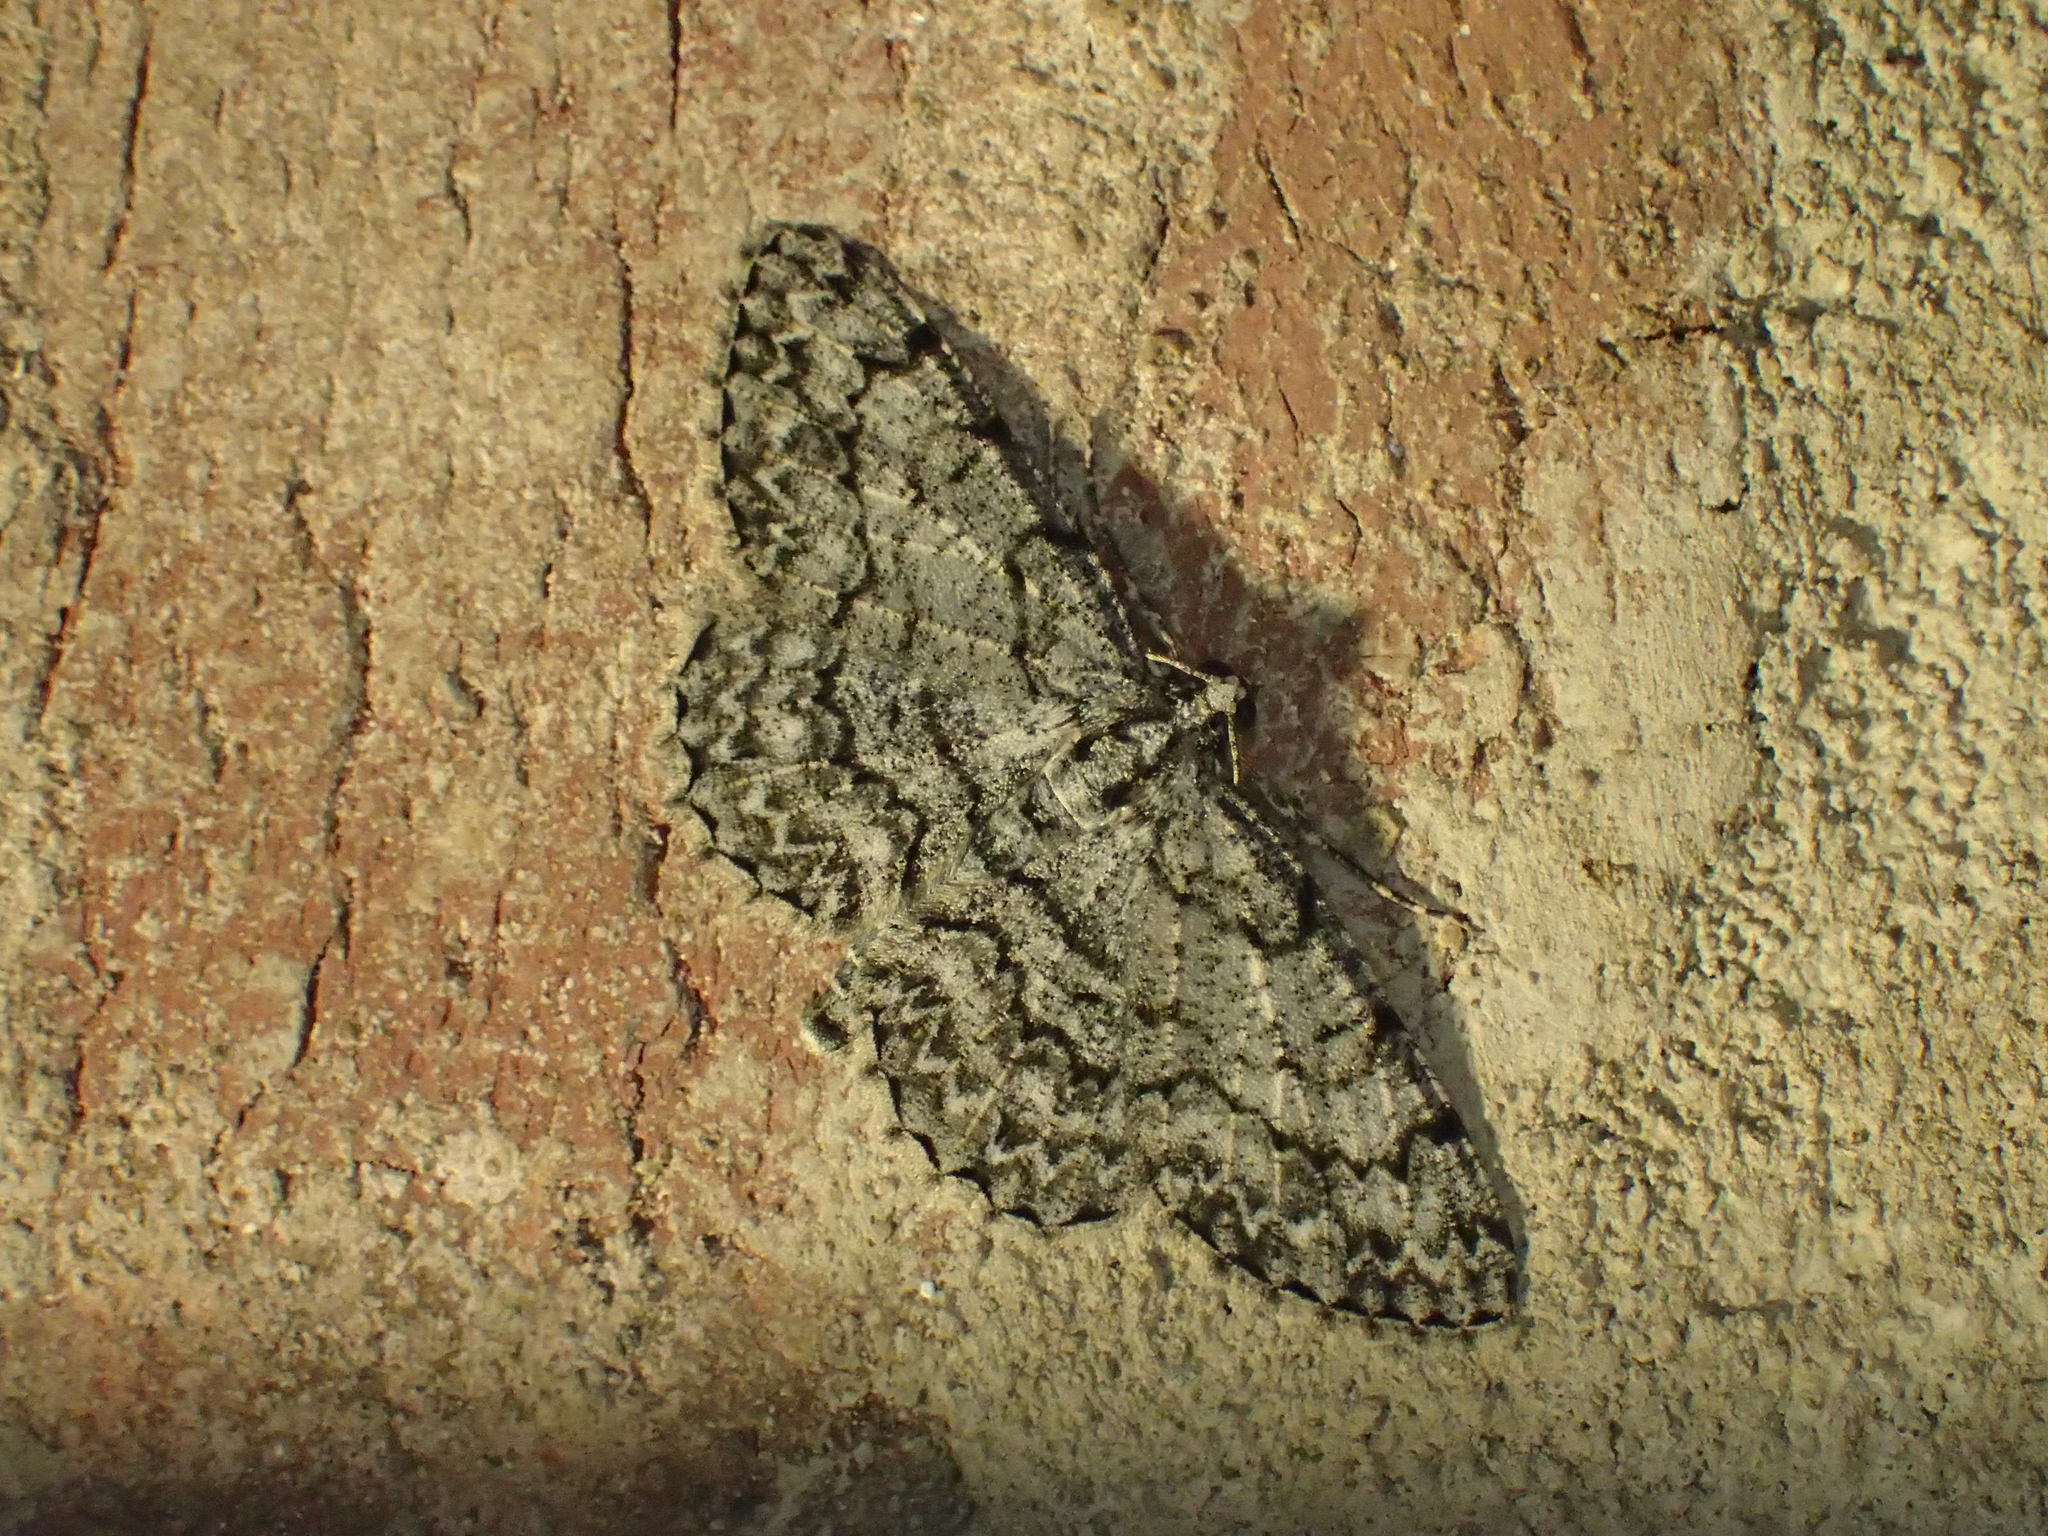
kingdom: Animalia
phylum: Arthropoda
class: Insecta
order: Lepidoptera
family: Geometridae
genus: Protoboarmia
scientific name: Protoboarmia porcelaria
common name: Porcelain gray
